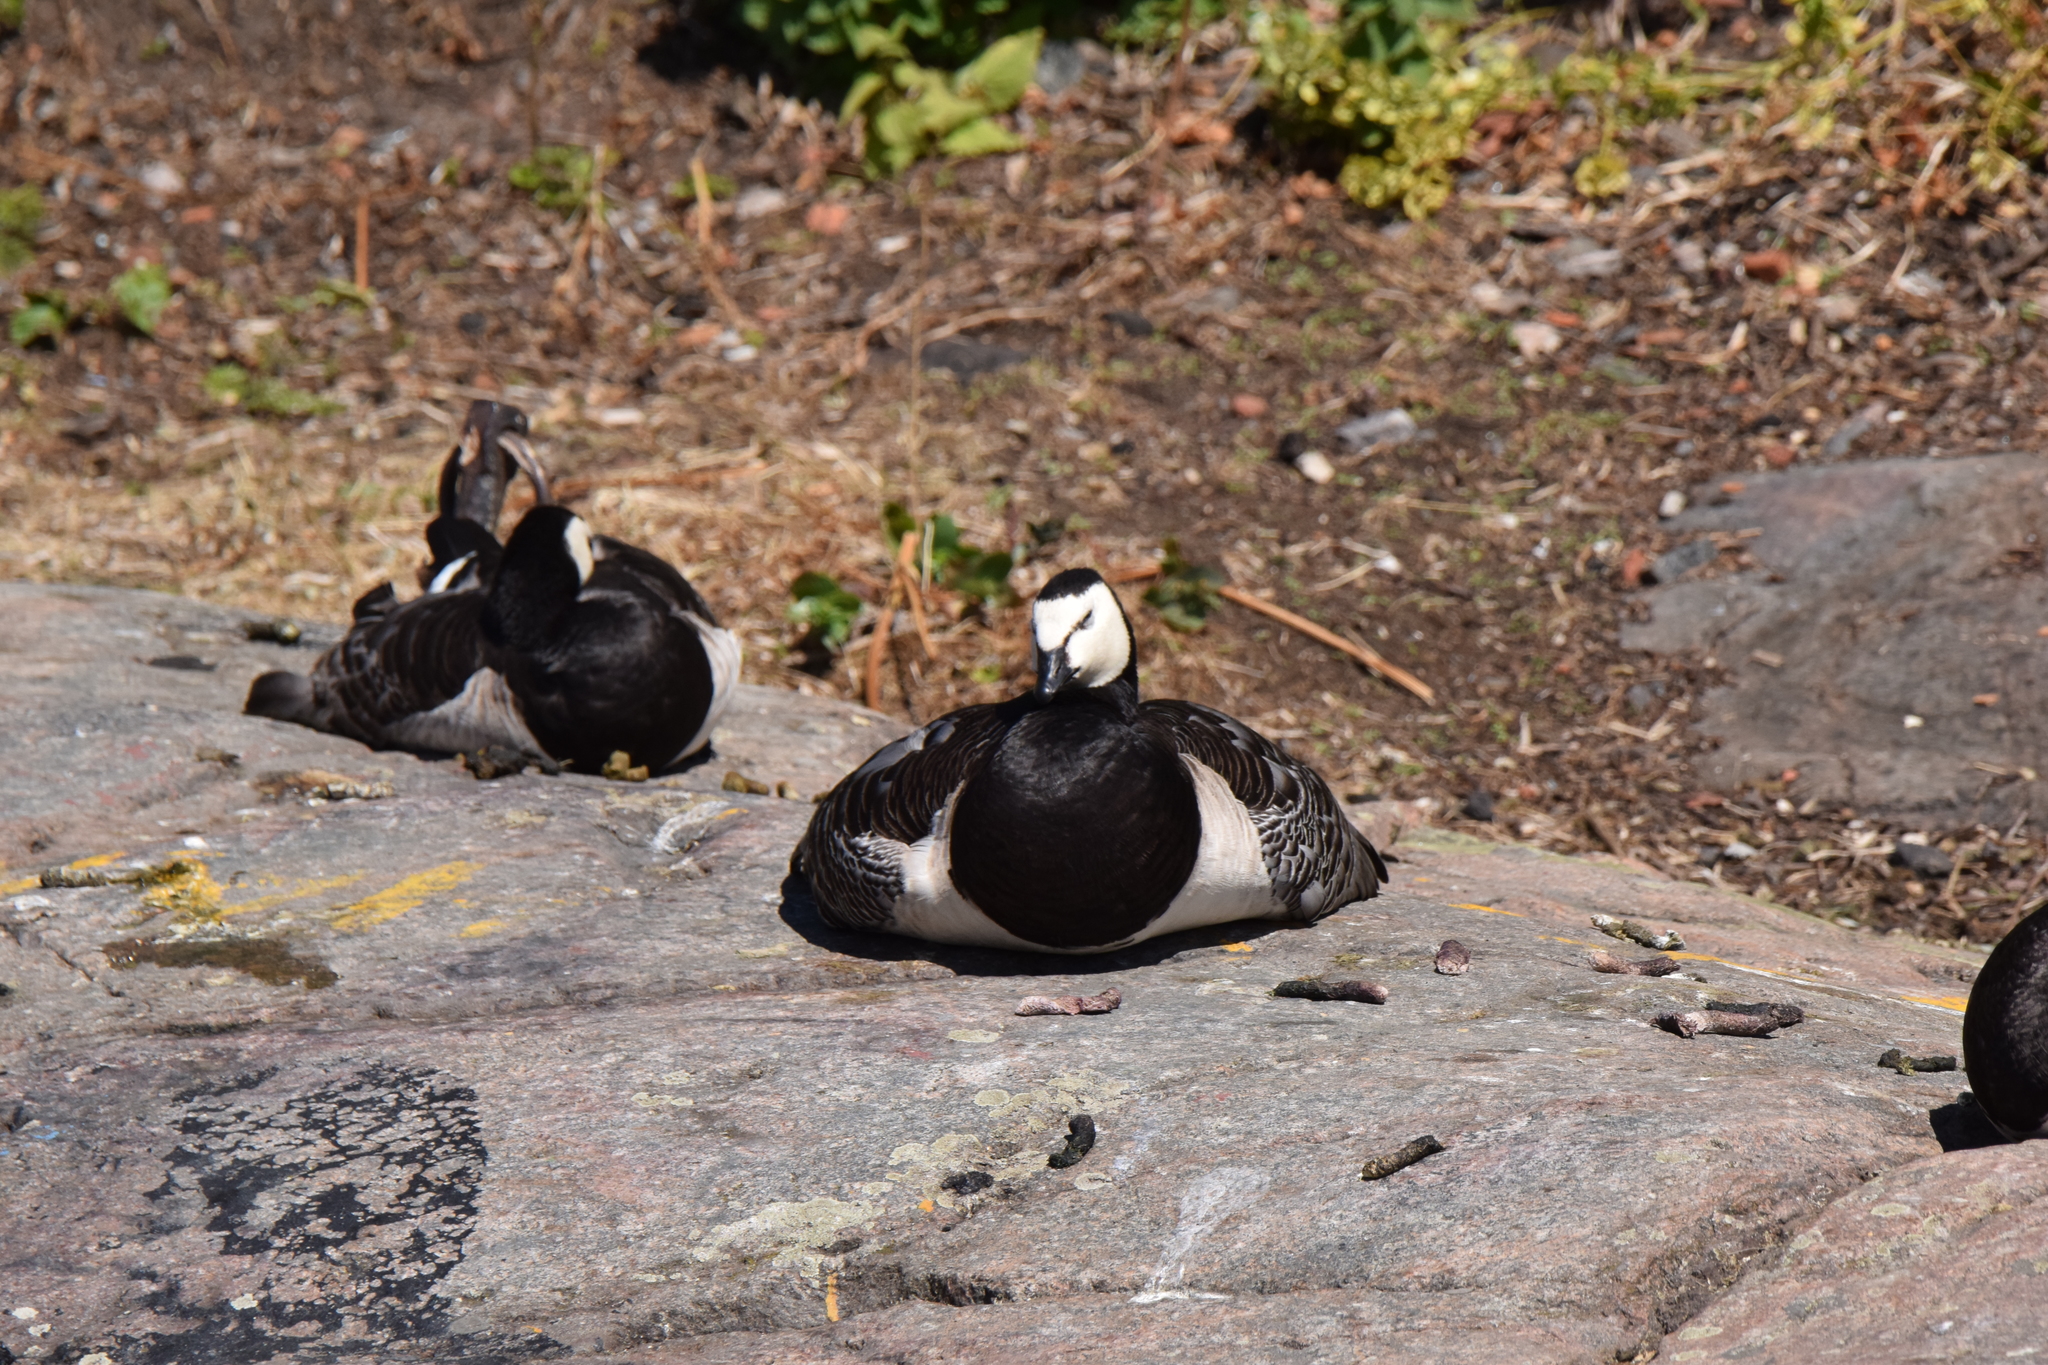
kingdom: Animalia
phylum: Chordata
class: Aves
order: Anseriformes
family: Anatidae
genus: Branta
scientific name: Branta leucopsis
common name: Barnacle goose
